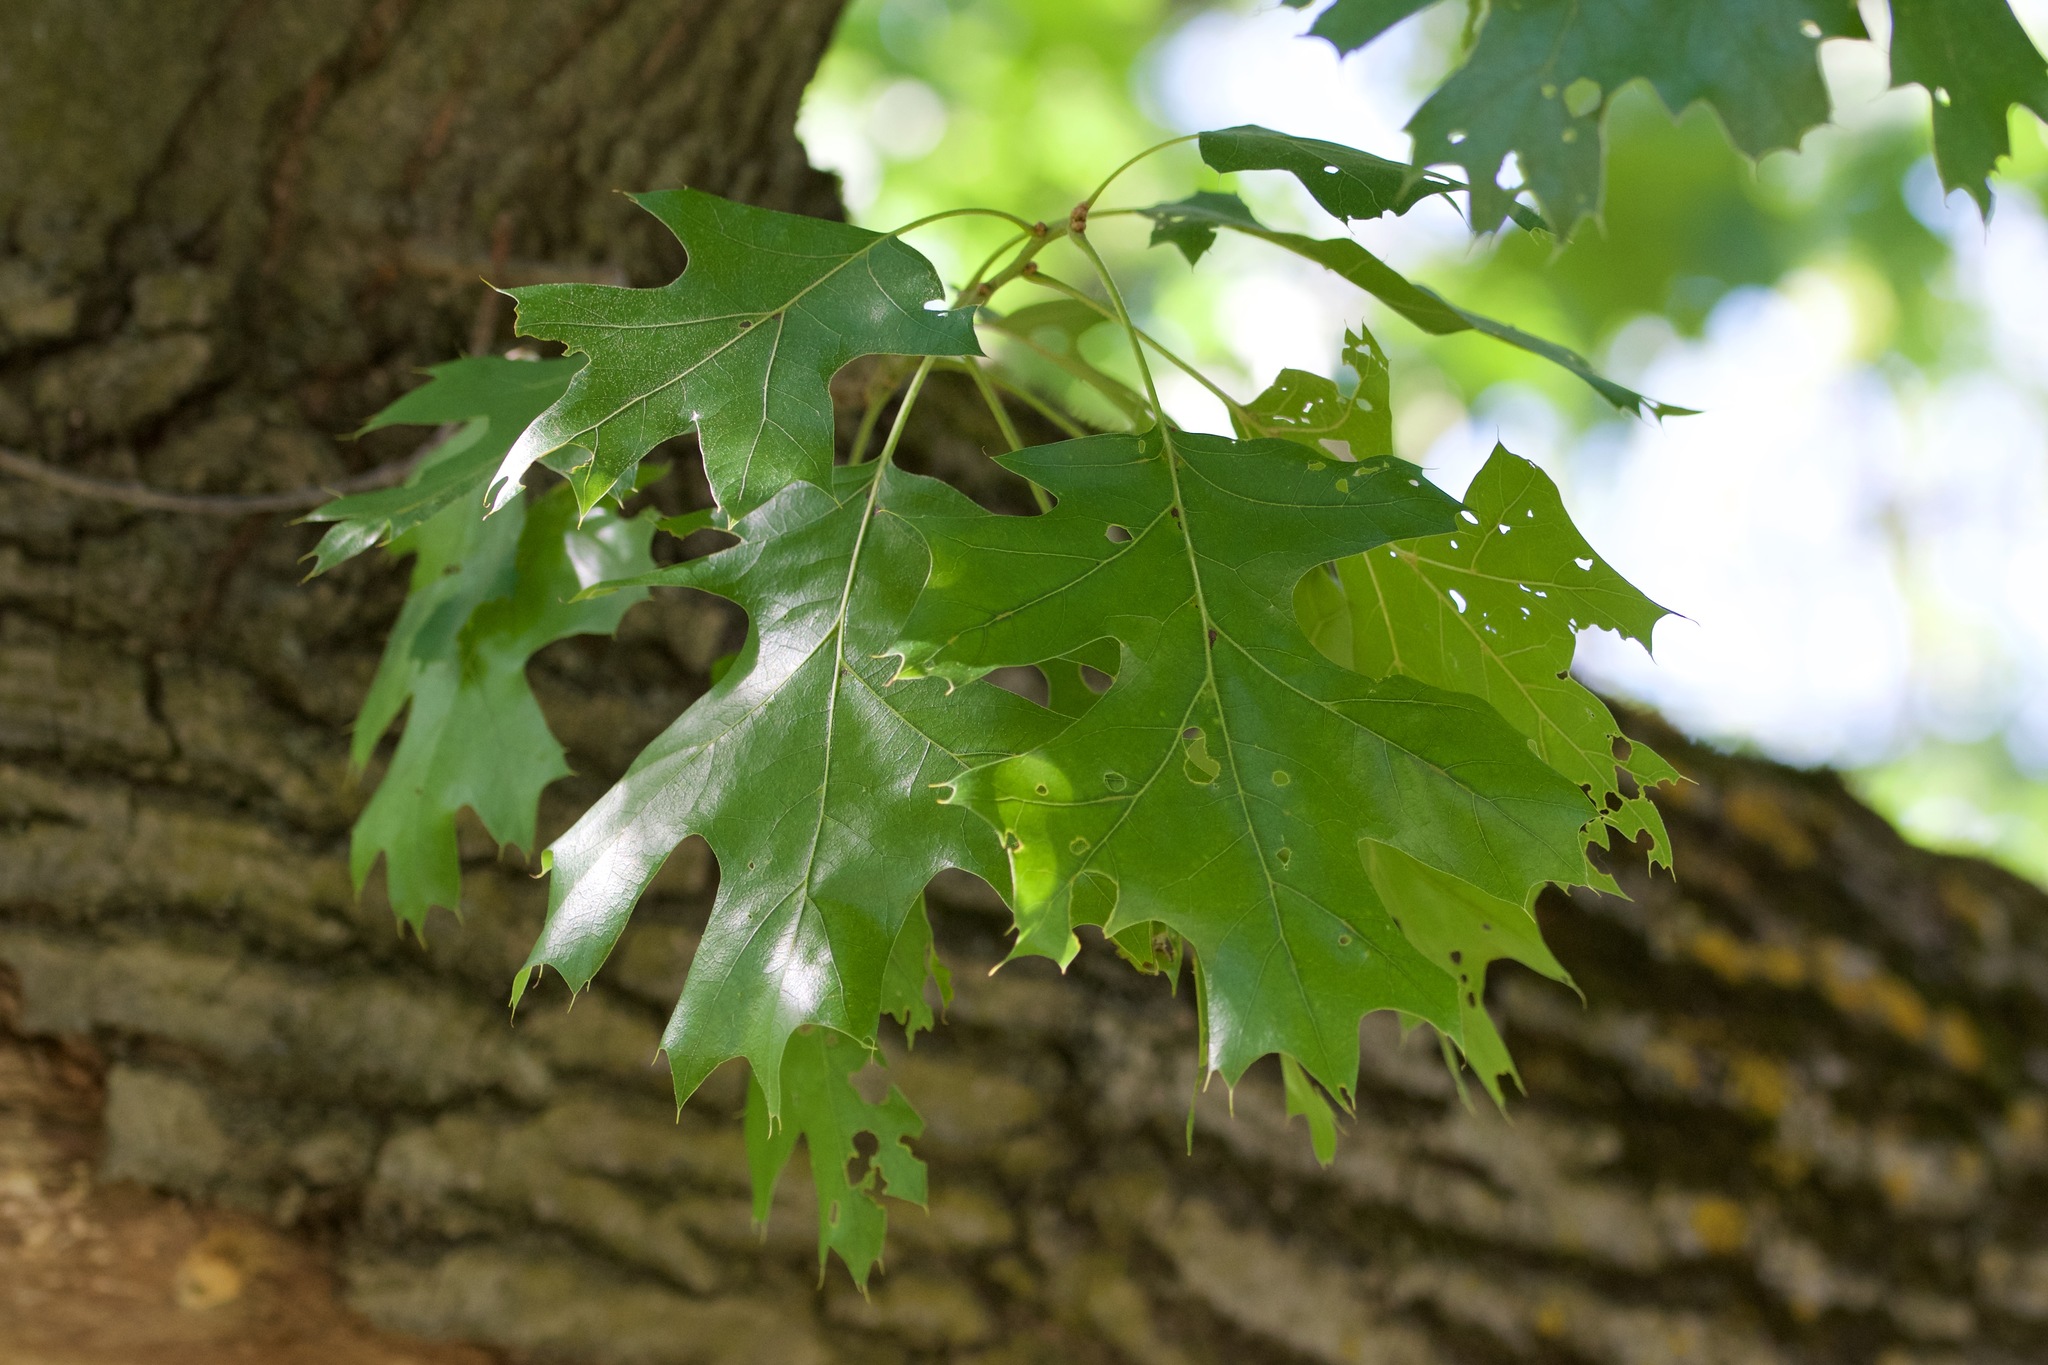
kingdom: Plantae
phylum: Tracheophyta
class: Magnoliopsida
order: Fagales
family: Fagaceae
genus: Quercus
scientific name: Quercus velutina
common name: Black oak
